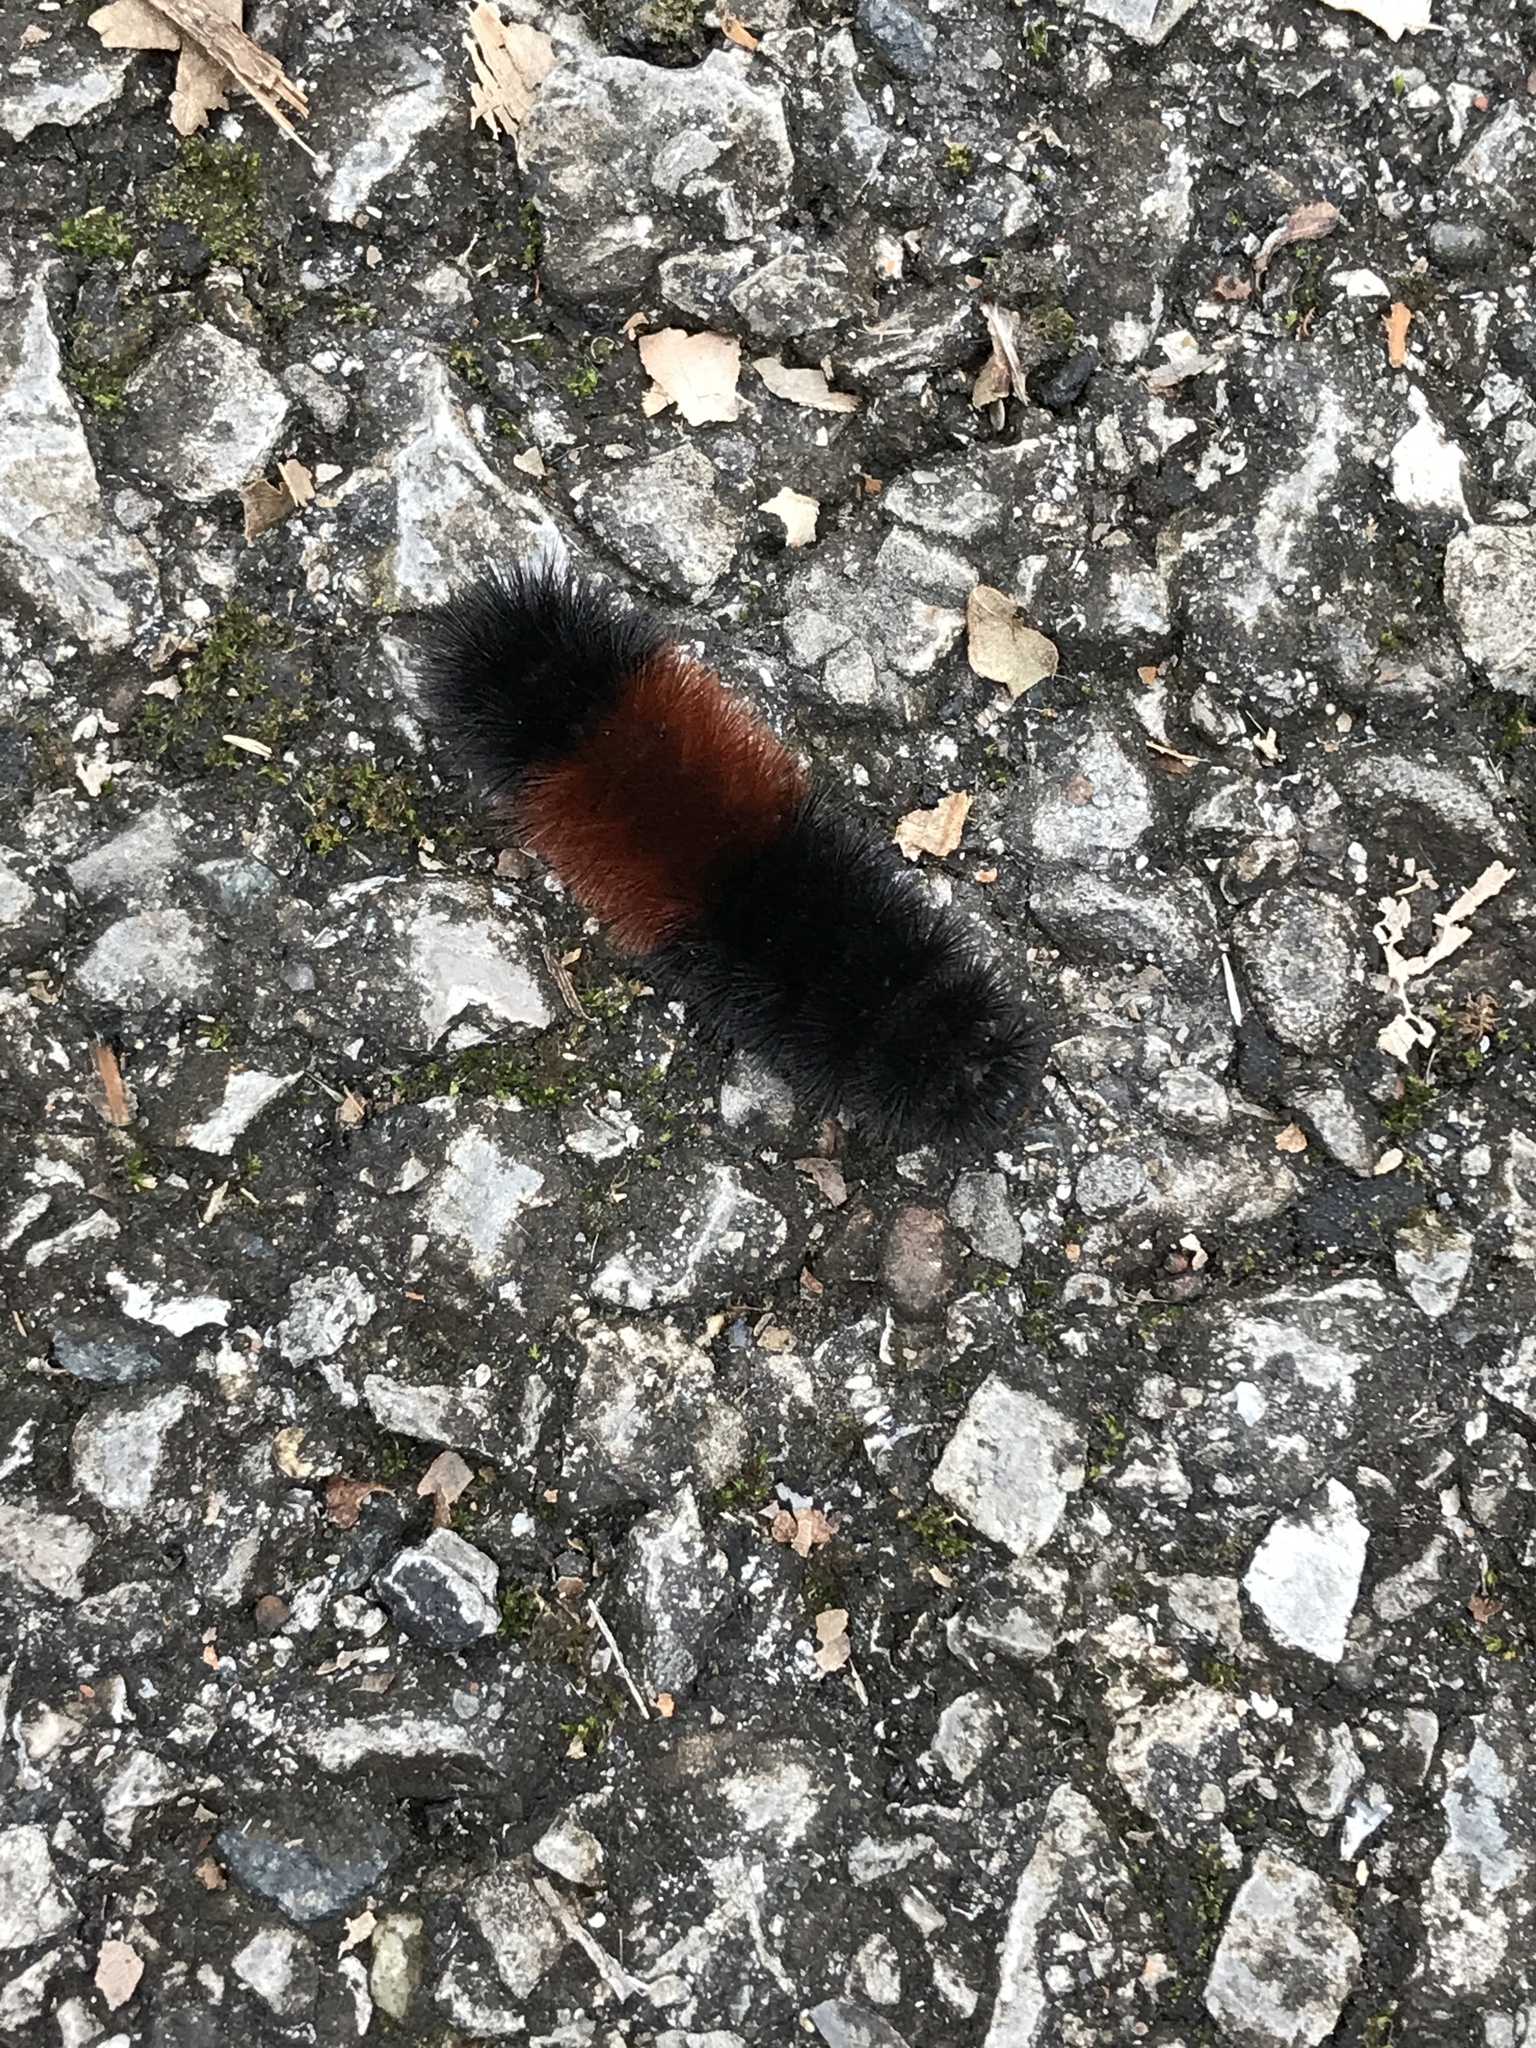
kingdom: Animalia
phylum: Arthropoda
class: Insecta
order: Lepidoptera
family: Erebidae
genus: Pyrrharctia
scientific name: Pyrrharctia isabella
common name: Isabella tiger moth
